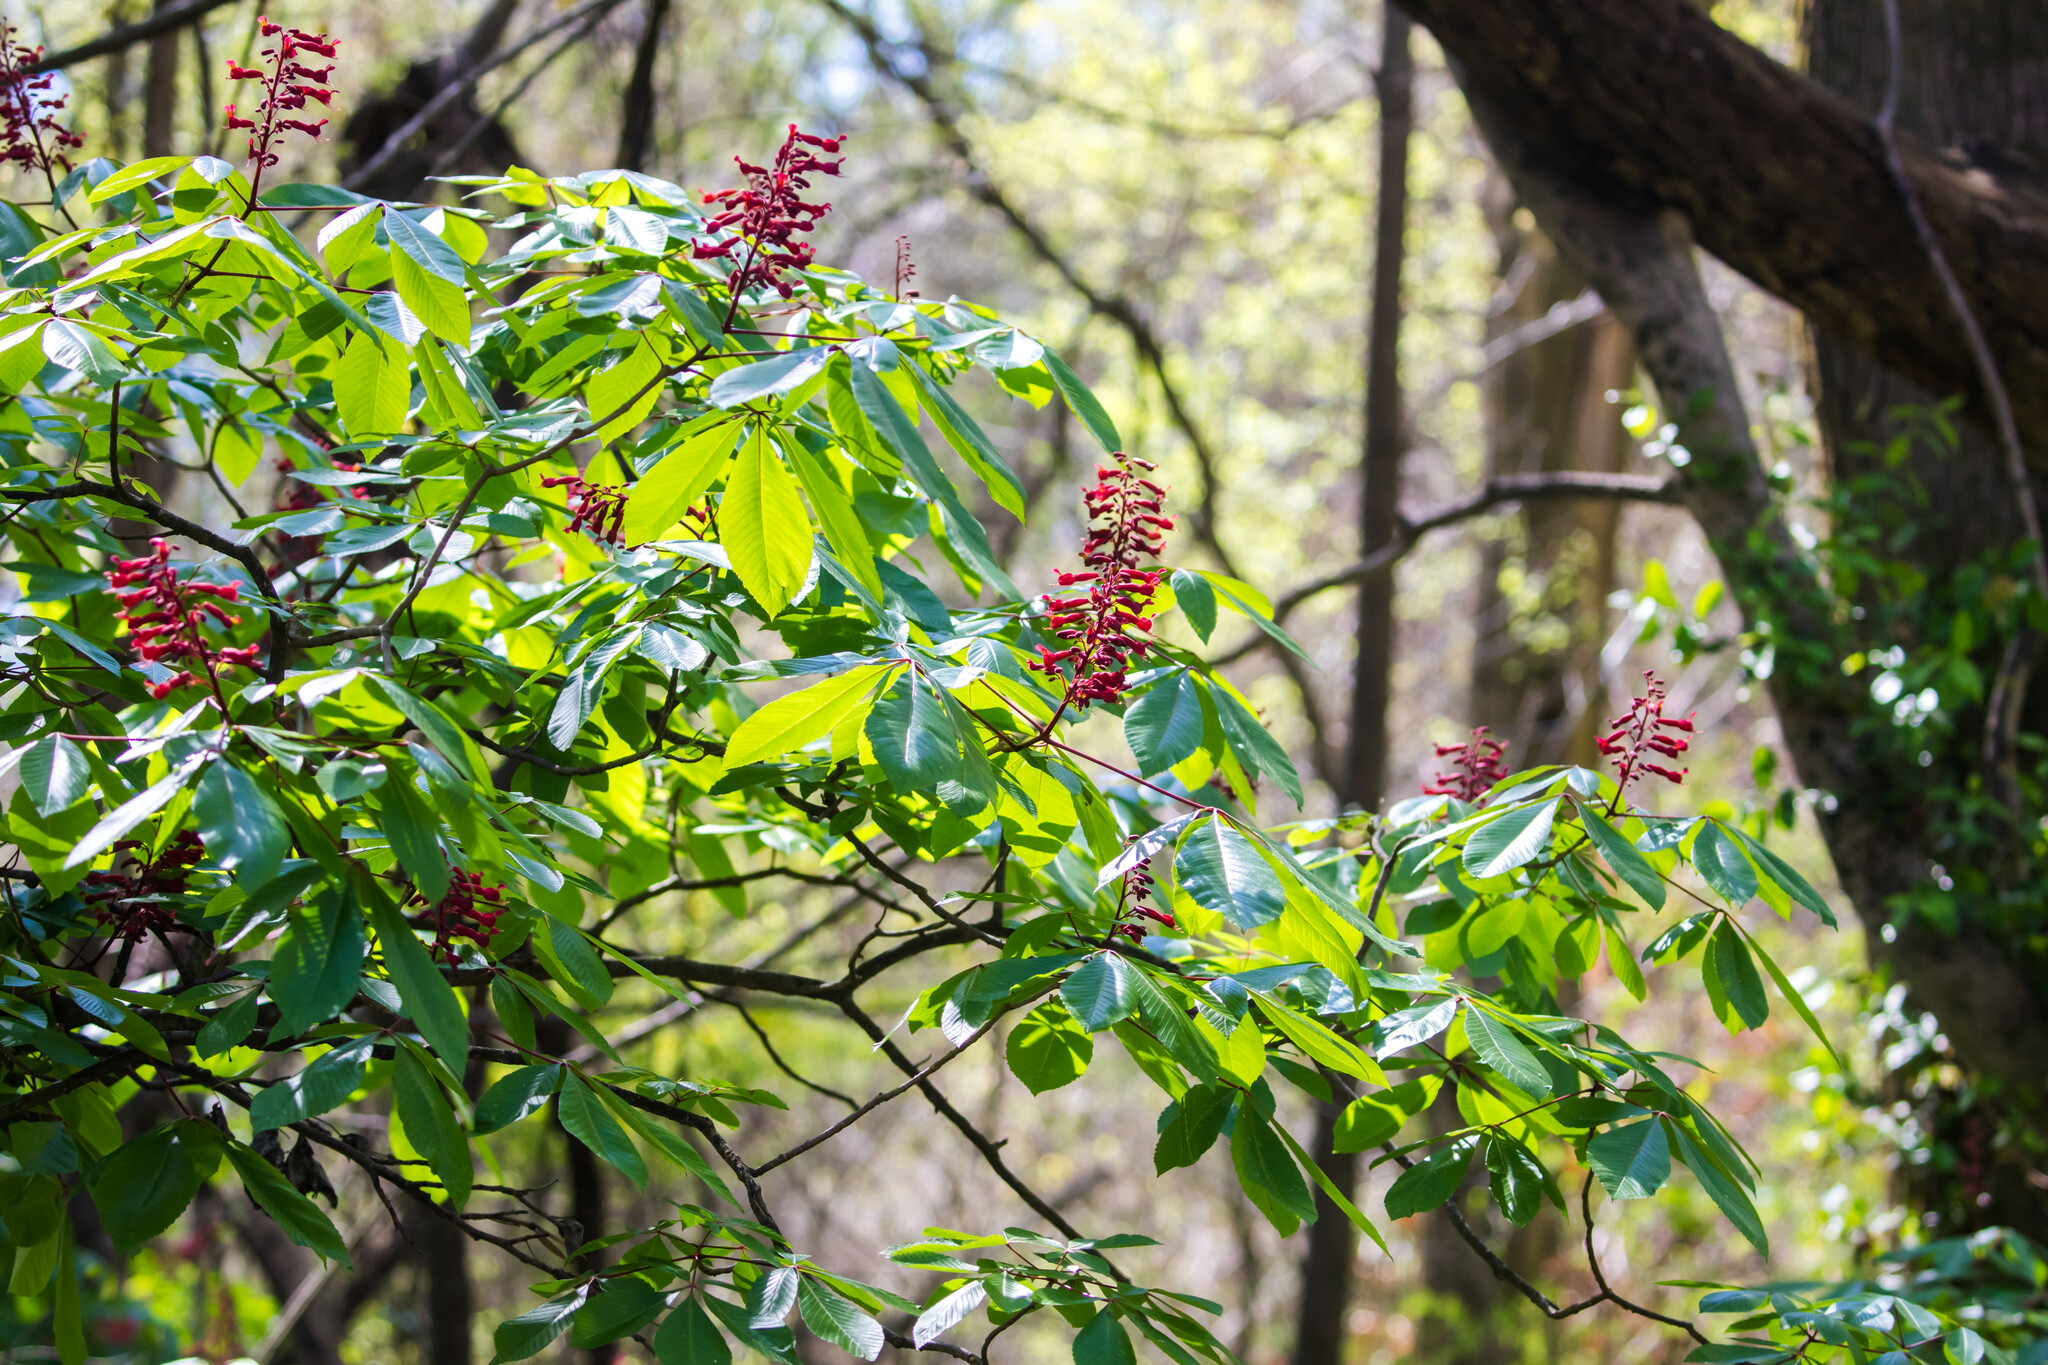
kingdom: Plantae
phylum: Tracheophyta
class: Magnoliopsida
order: Sapindales
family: Sapindaceae
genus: Aesculus
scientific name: Aesculus pavia
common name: Red buckeye
